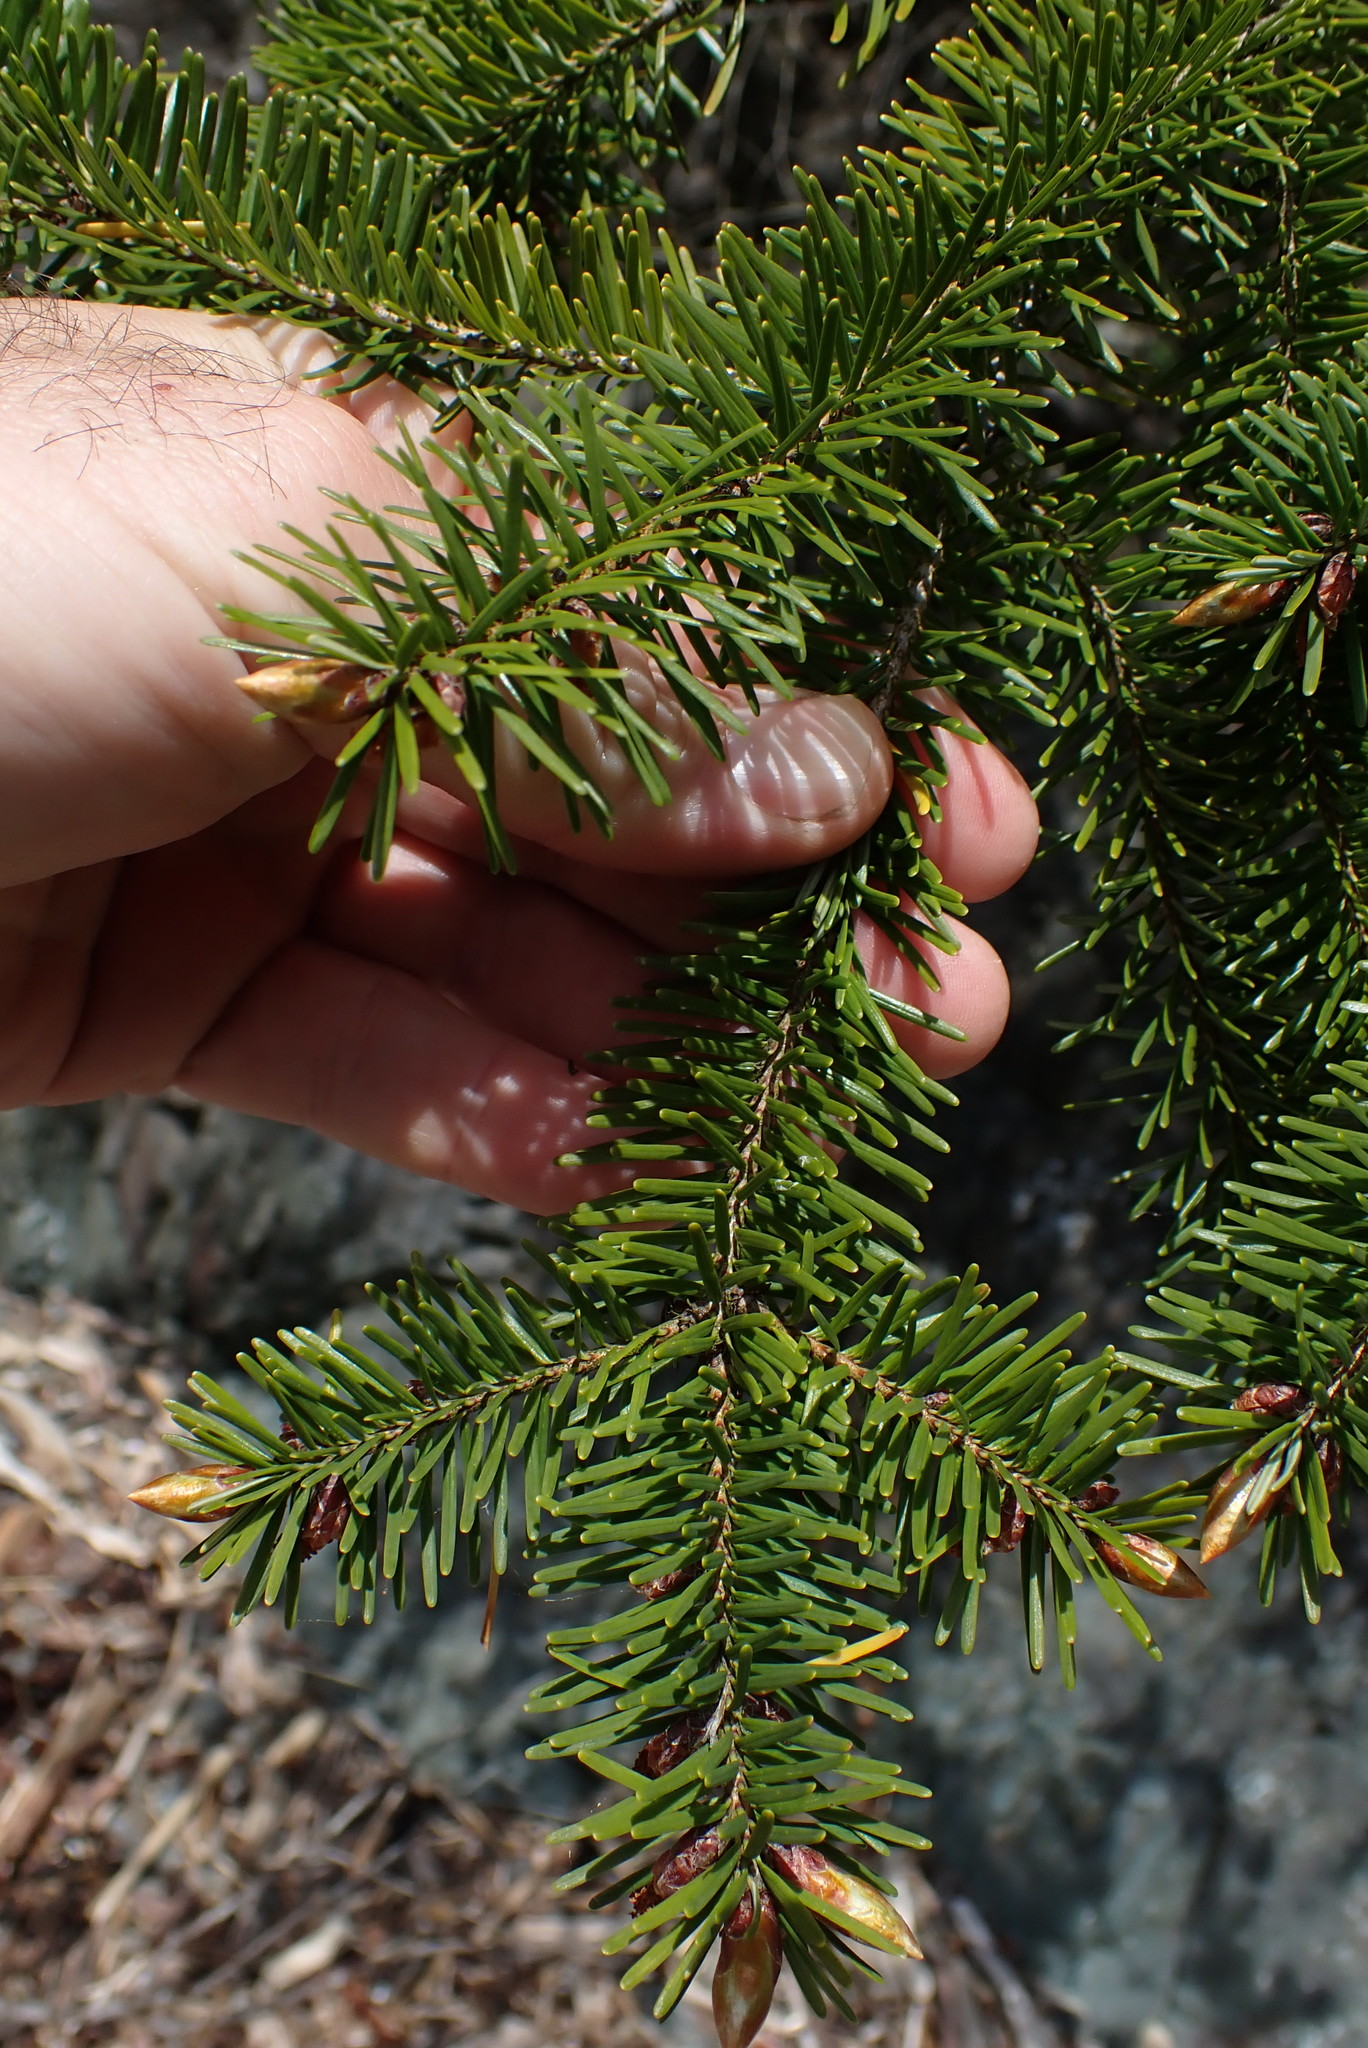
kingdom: Plantae
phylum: Tracheophyta
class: Pinopsida
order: Pinales
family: Pinaceae
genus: Pseudotsuga
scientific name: Pseudotsuga menziesii
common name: Douglas fir
